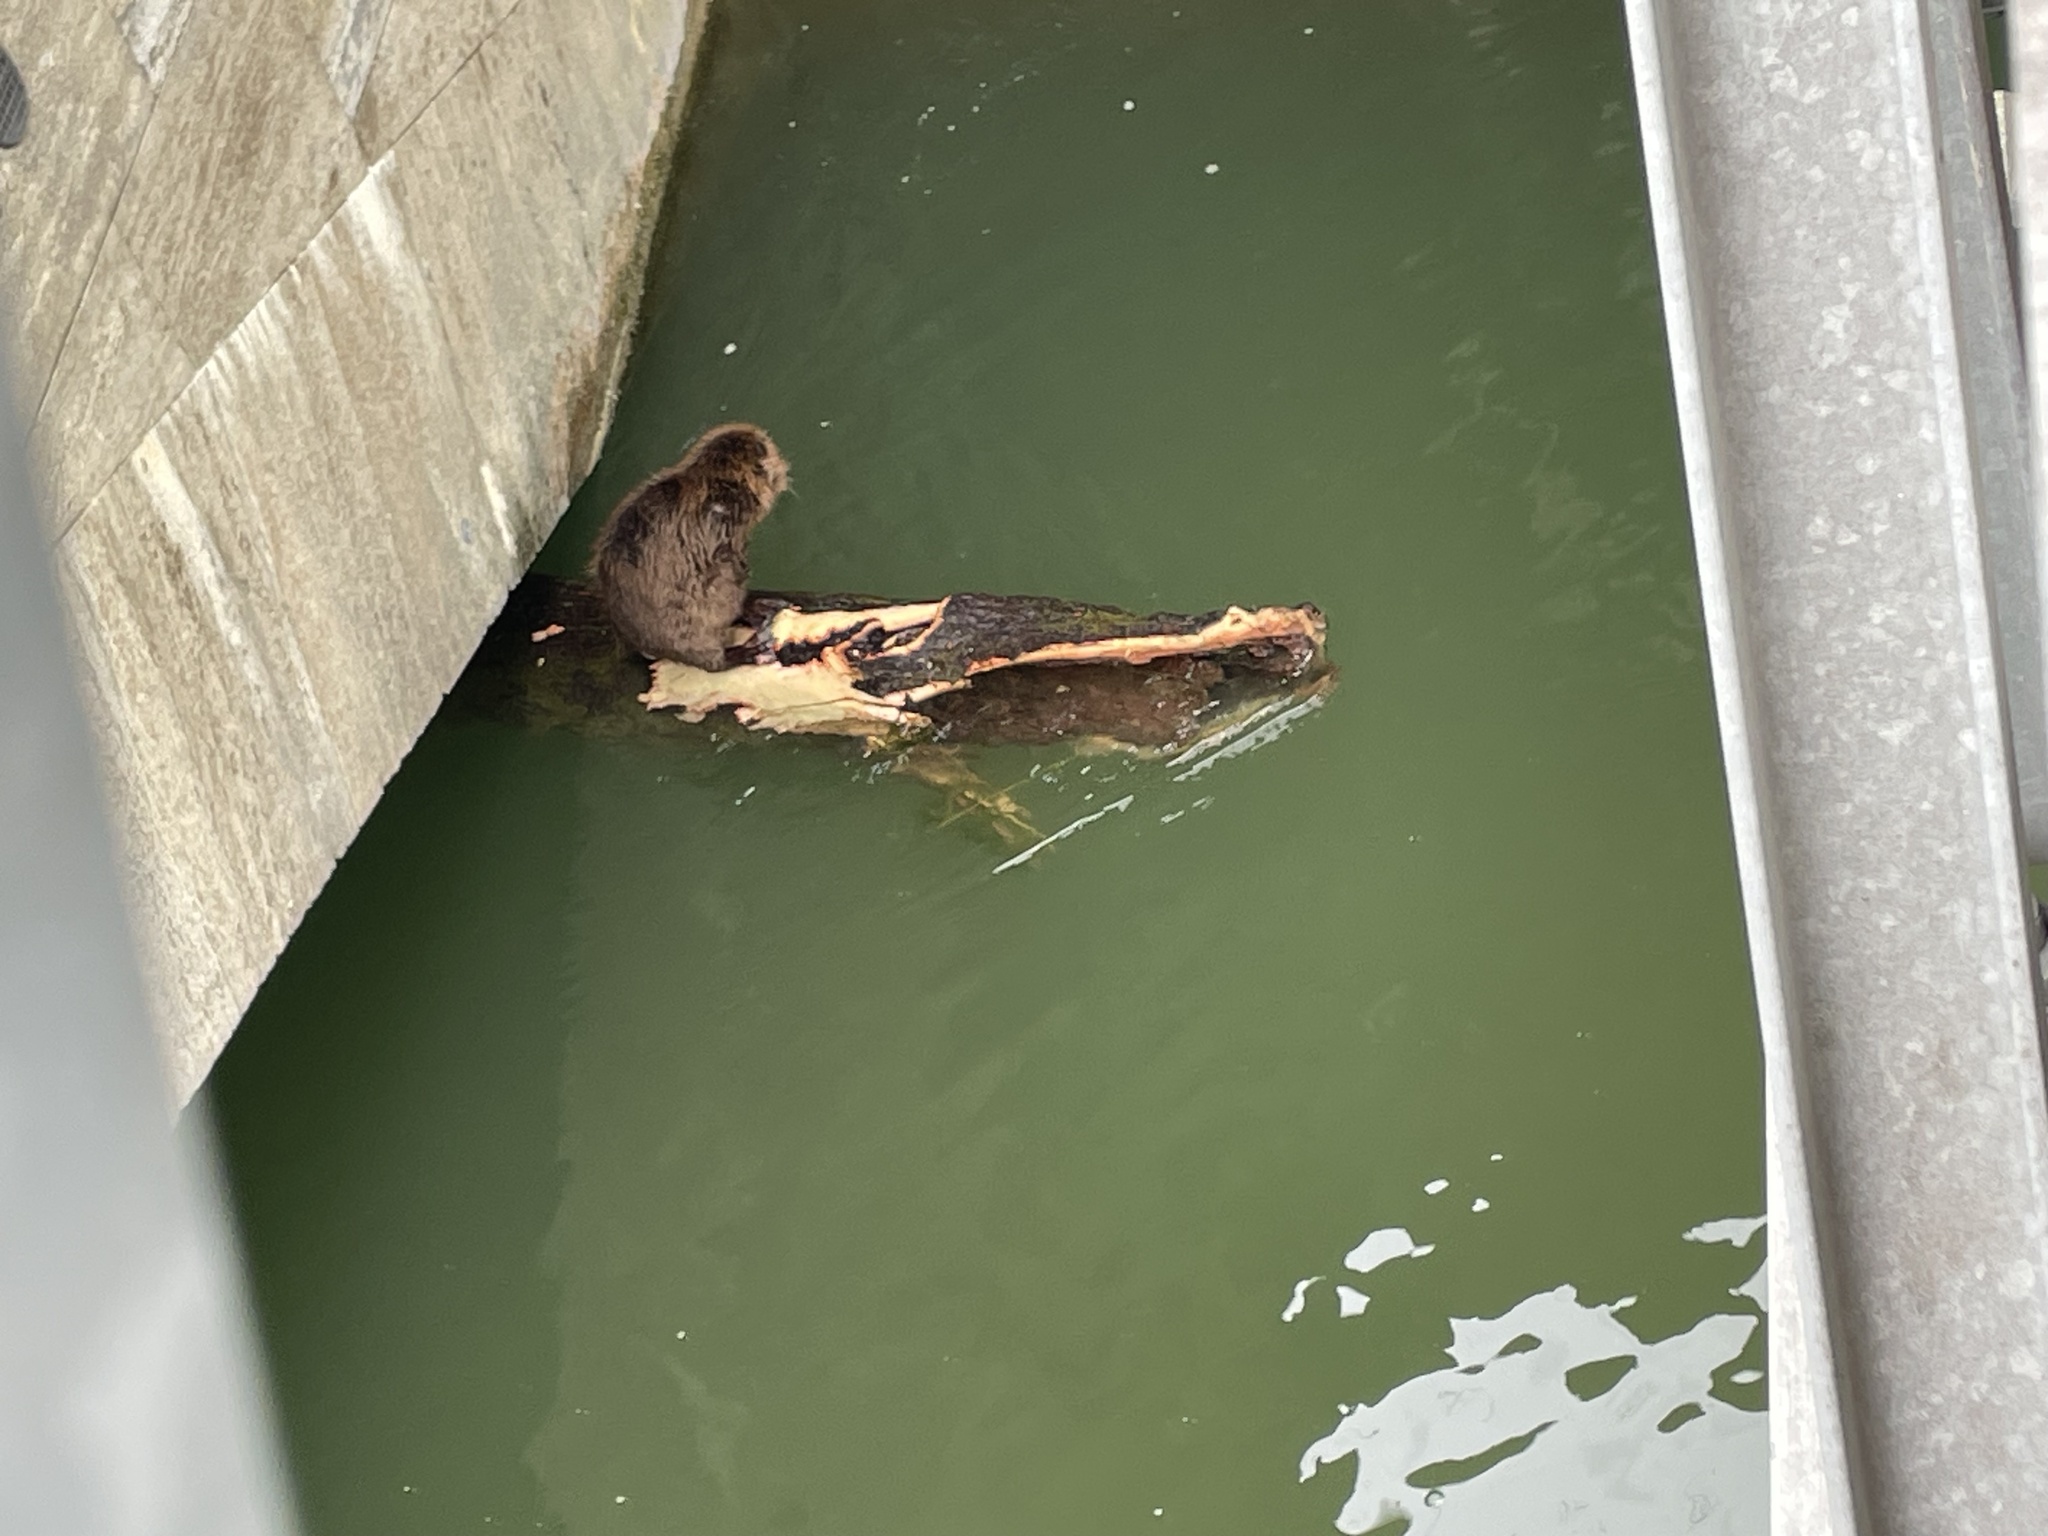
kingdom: Animalia
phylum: Chordata
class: Mammalia
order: Rodentia
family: Castoridae
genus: Castor
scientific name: Castor fiber
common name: Eurasian beaver
